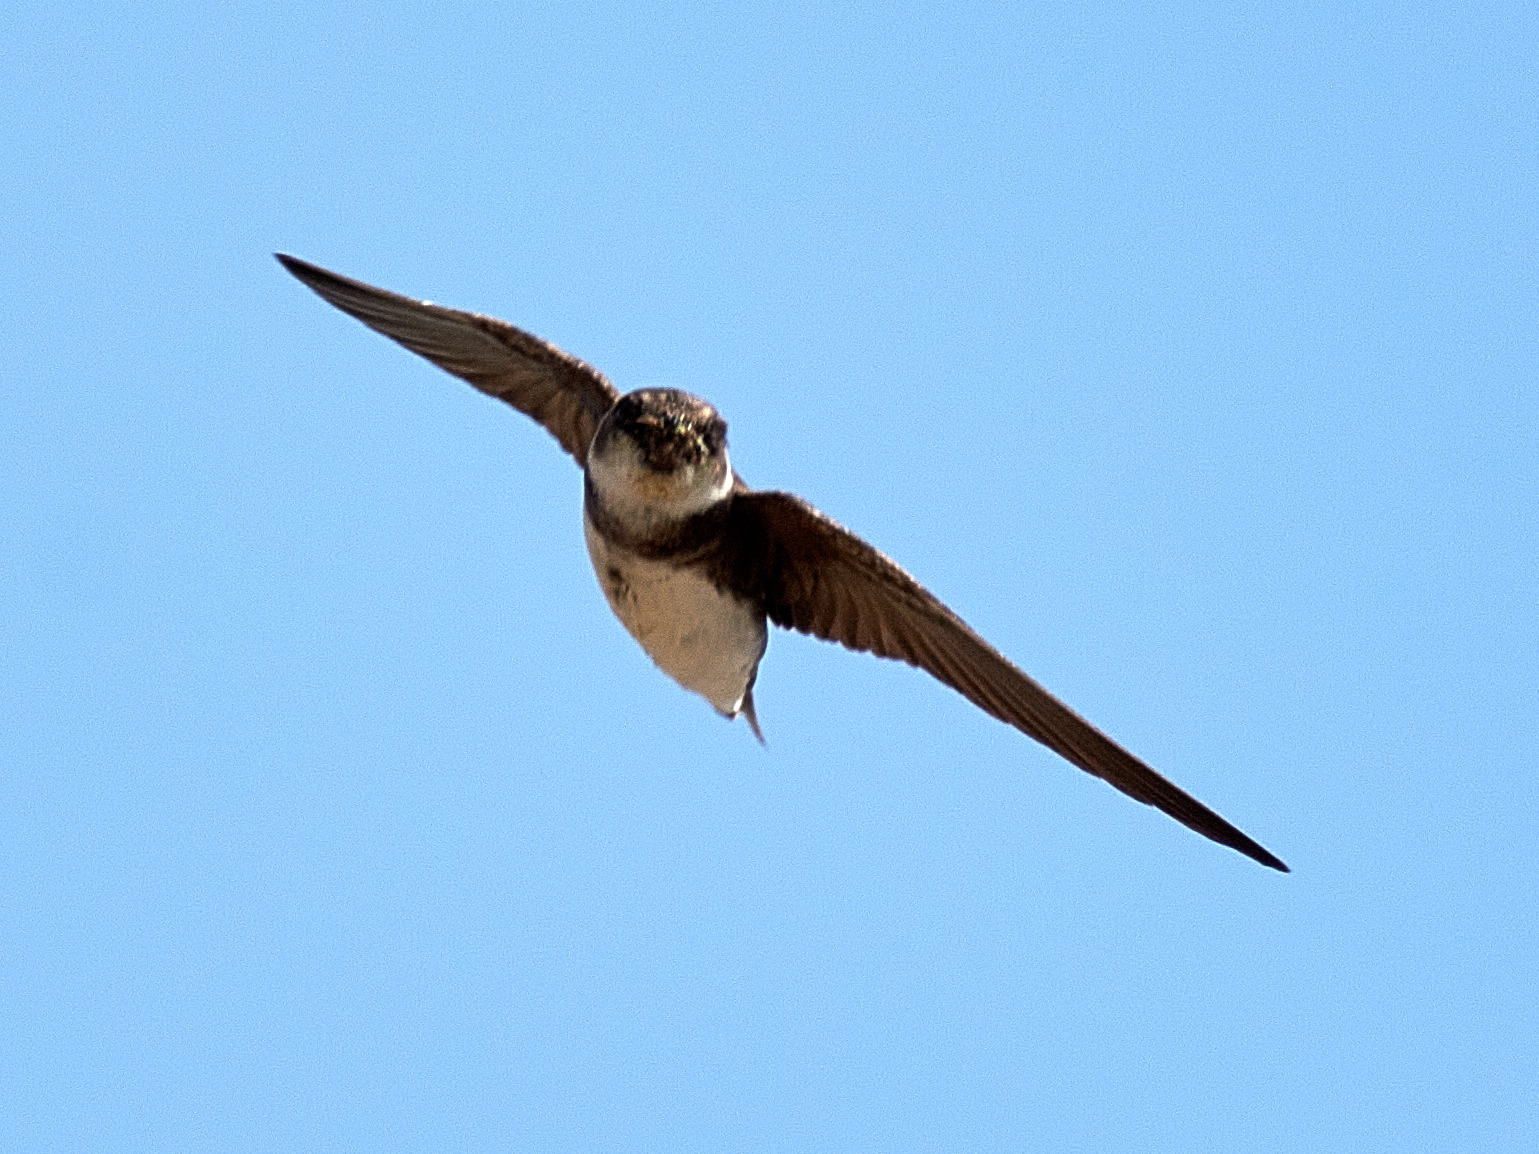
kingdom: Animalia
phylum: Chordata
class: Aves
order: Passeriformes
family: Hirundinidae
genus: Riparia
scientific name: Riparia riparia
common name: Sand martin
